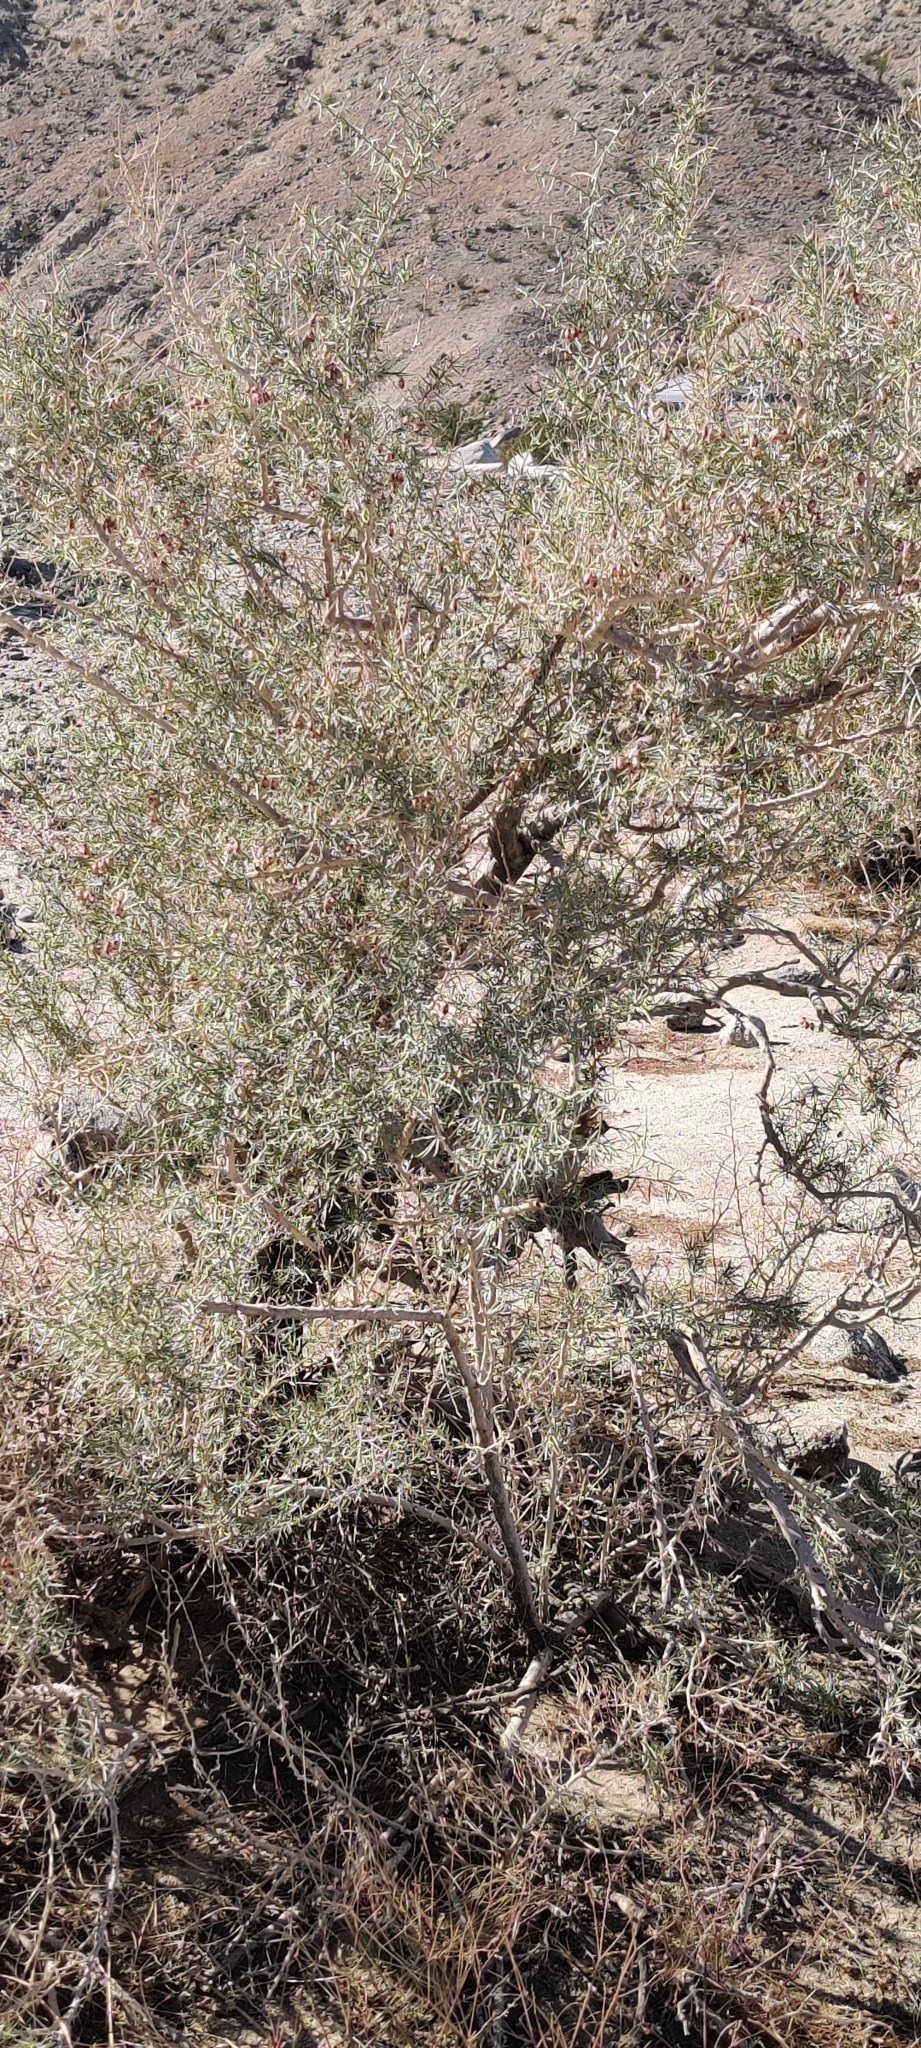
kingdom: Plantae
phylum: Tracheophyta
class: Magnoliopsida
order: Fabales
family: Fabaceae
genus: Psorothamnus
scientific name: Psorothamnus schottii
